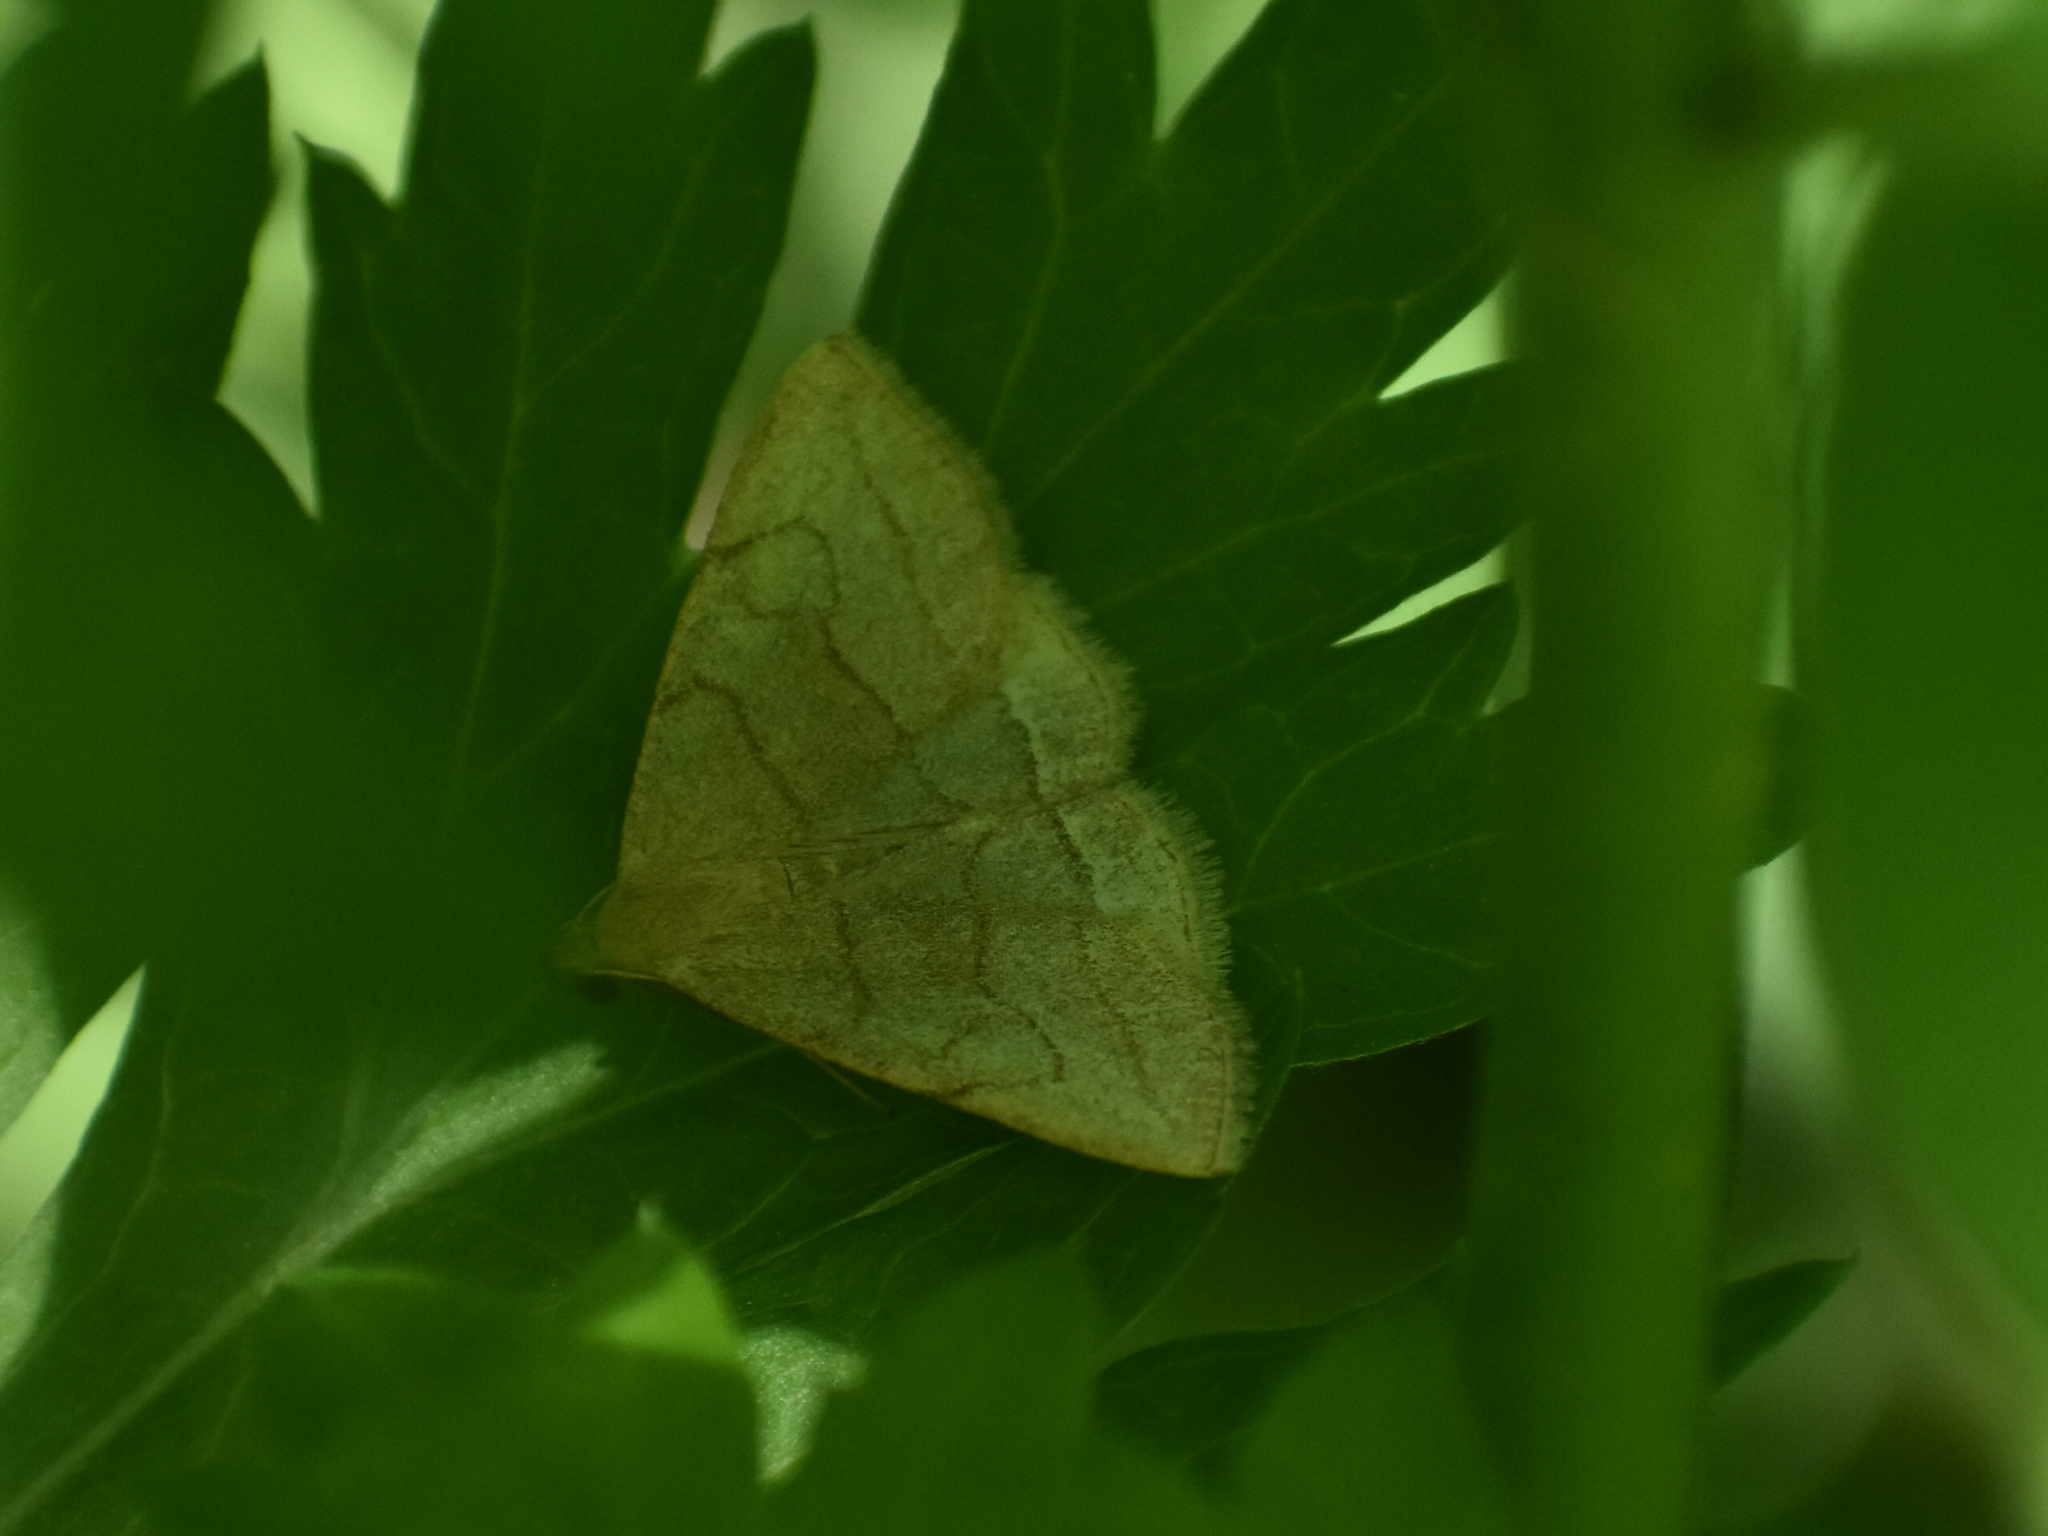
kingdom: Animalia
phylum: Arthropoda
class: Insecta
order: Lepidoptera
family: Erebidae
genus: Zanclognatha
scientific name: Zanclognatha pedipilalis
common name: Grayish fan-foot
